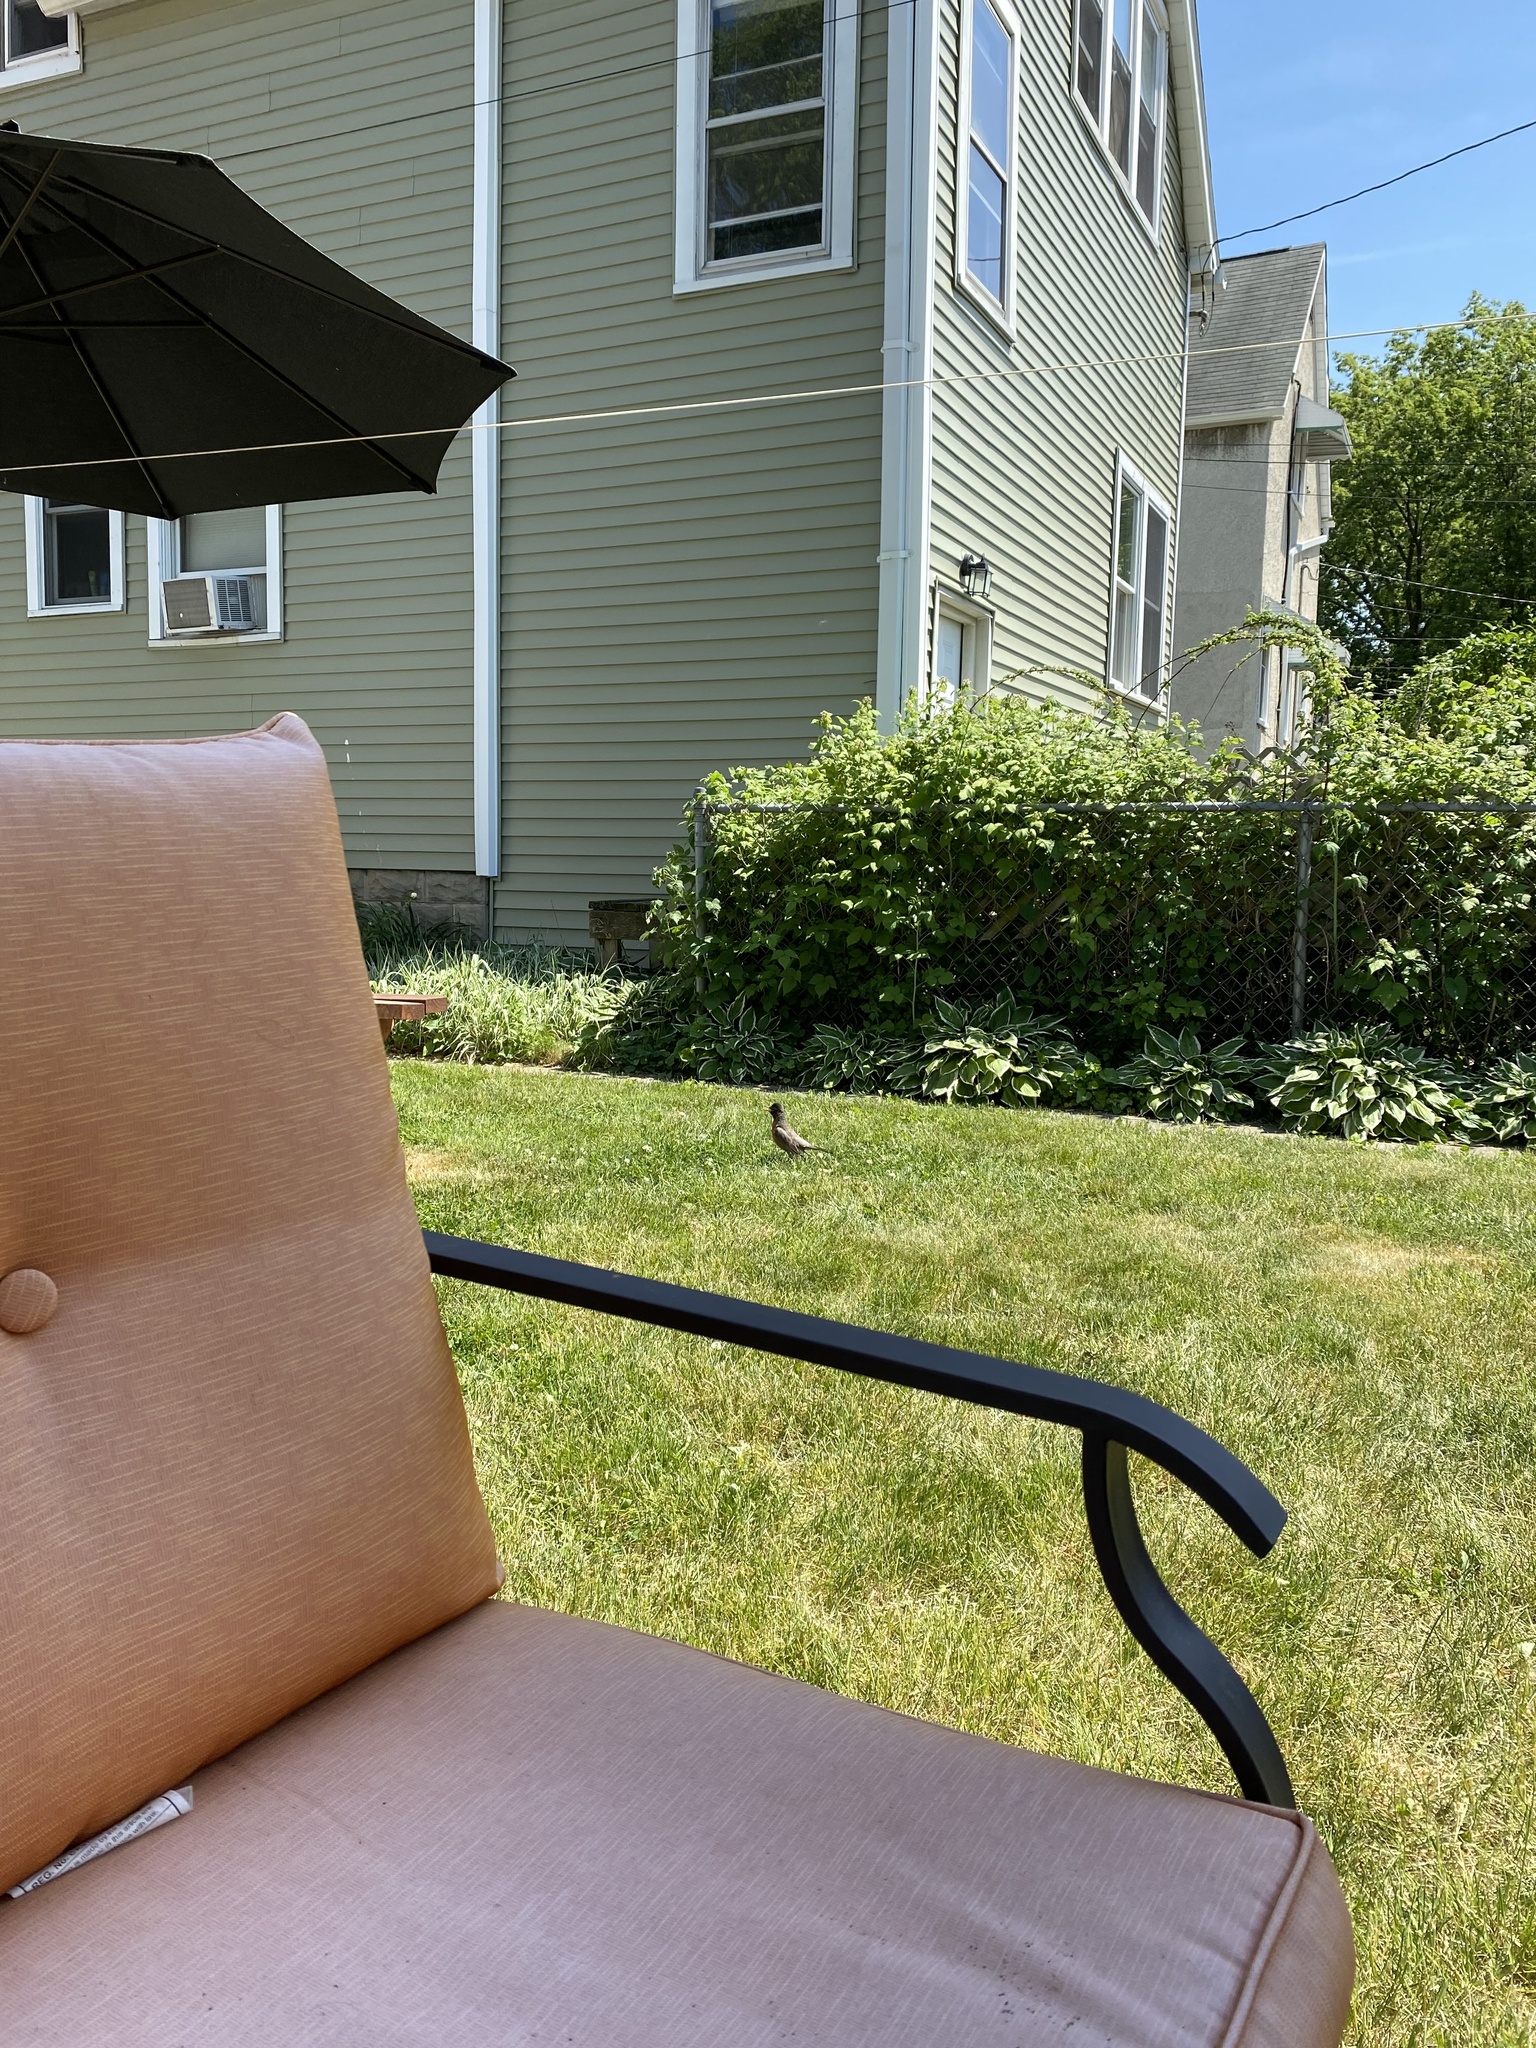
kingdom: Animalia
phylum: Chordata
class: Aves
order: Passeriformes
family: Turdidae
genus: Turdus
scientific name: Turdus migratorius
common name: American robin
